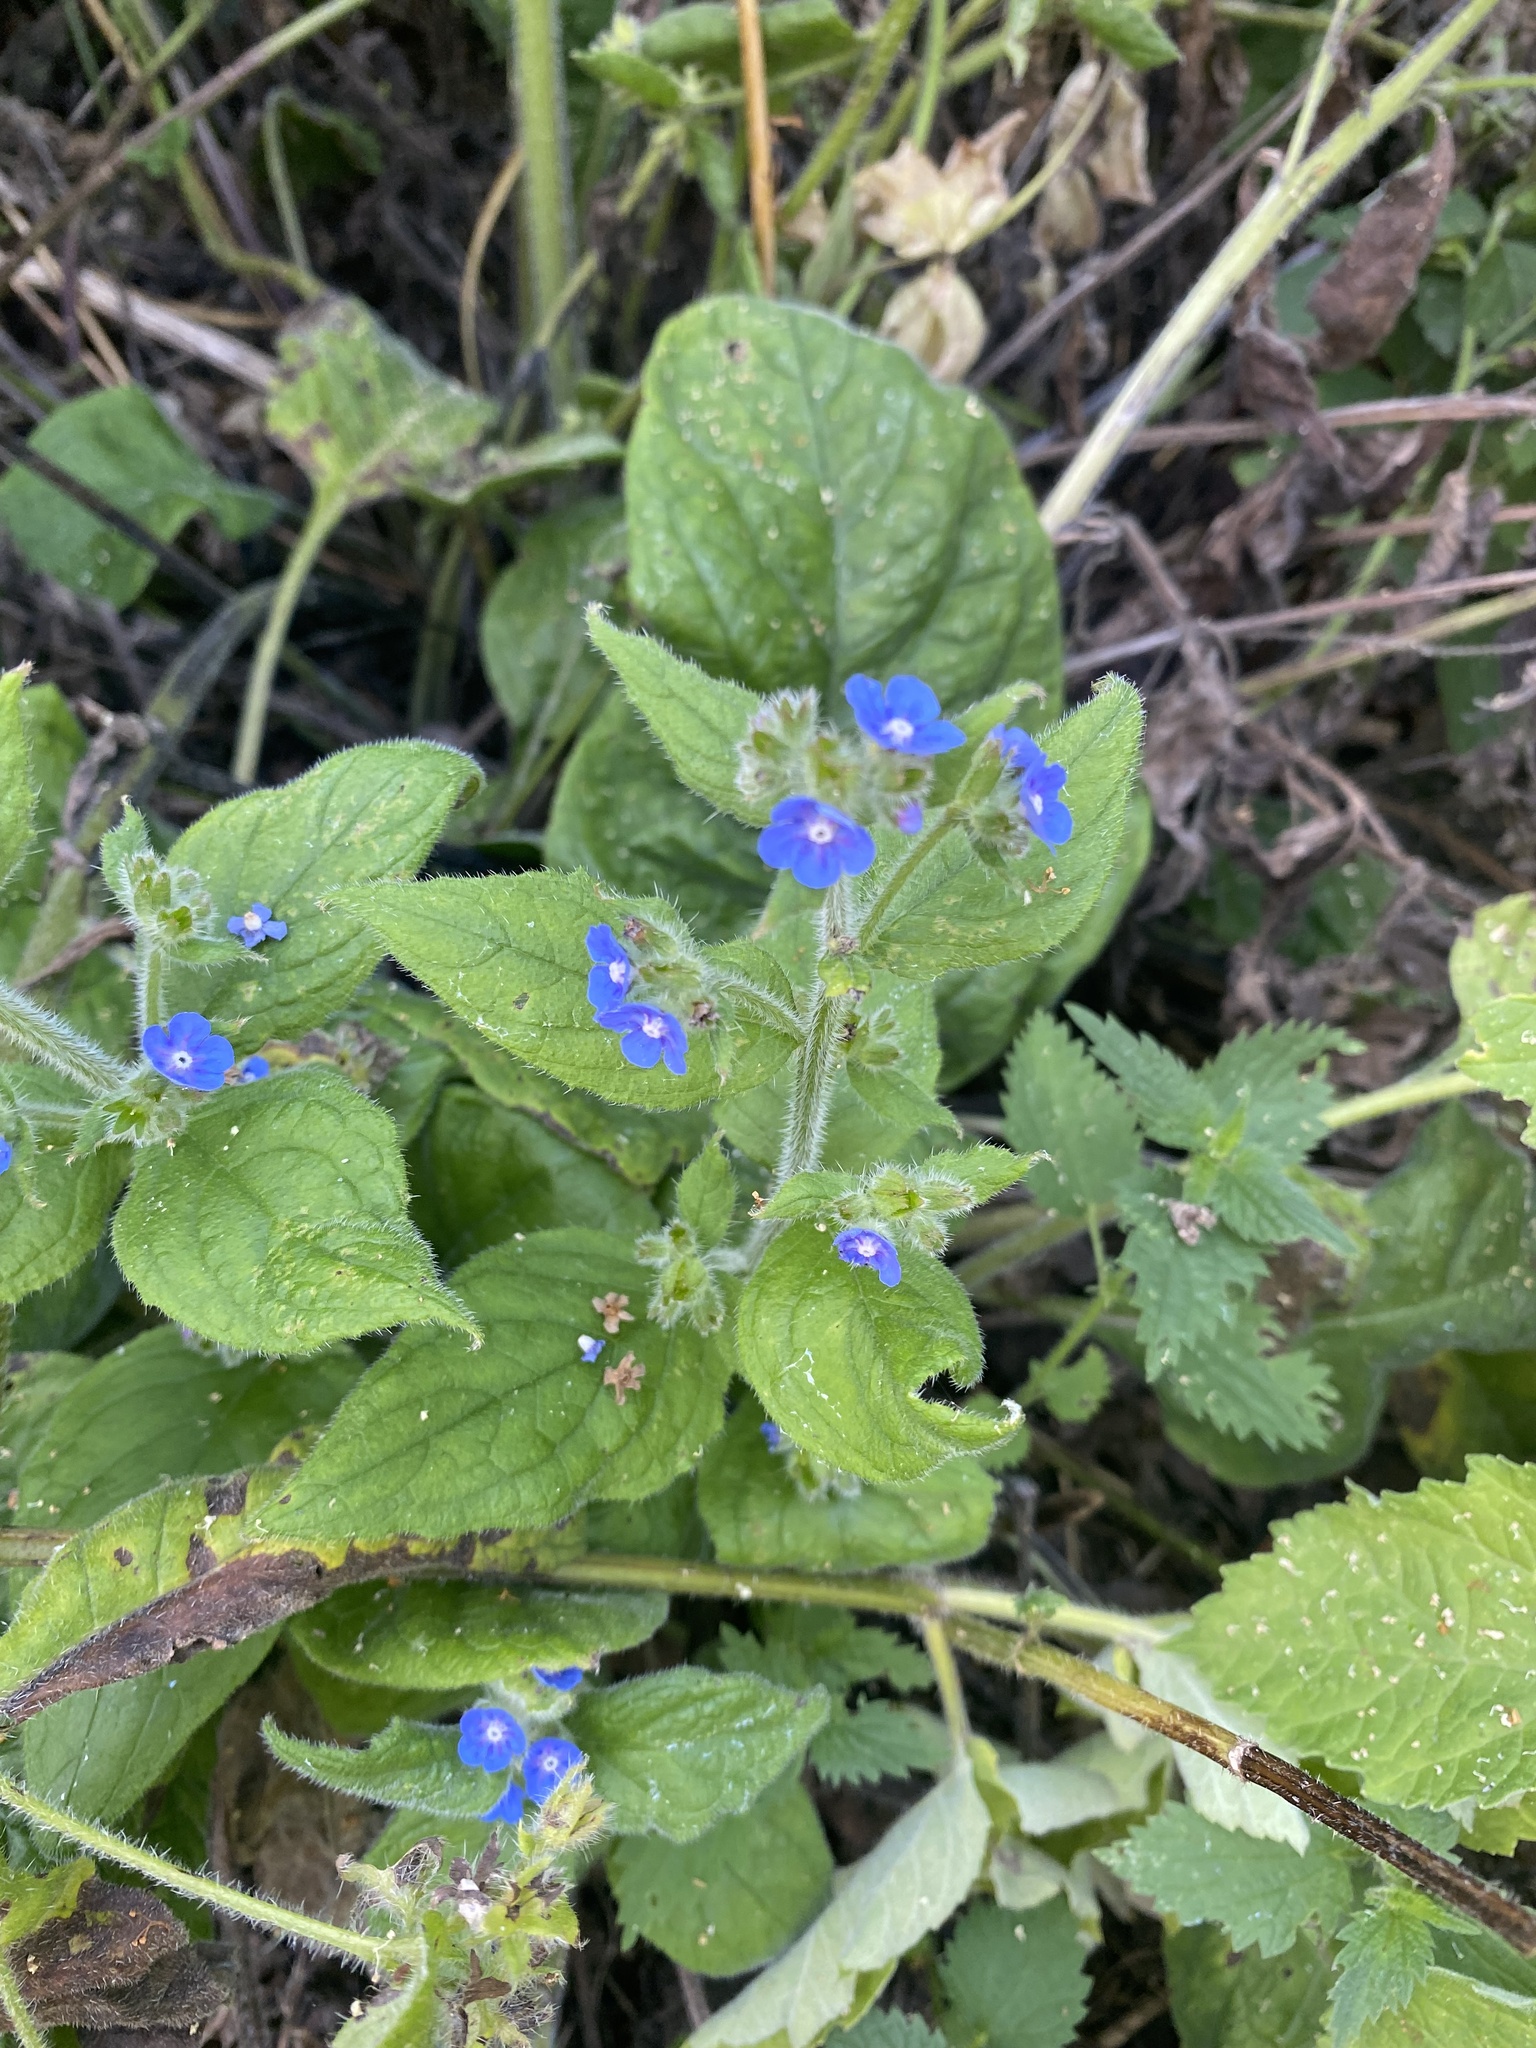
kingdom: Plantae
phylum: Tracheophyta
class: Magnoliopsida
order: Boraginales
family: Boraginaceae
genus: Pentaglottis
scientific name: Pentaglottis sempervirens
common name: Green alkanet
